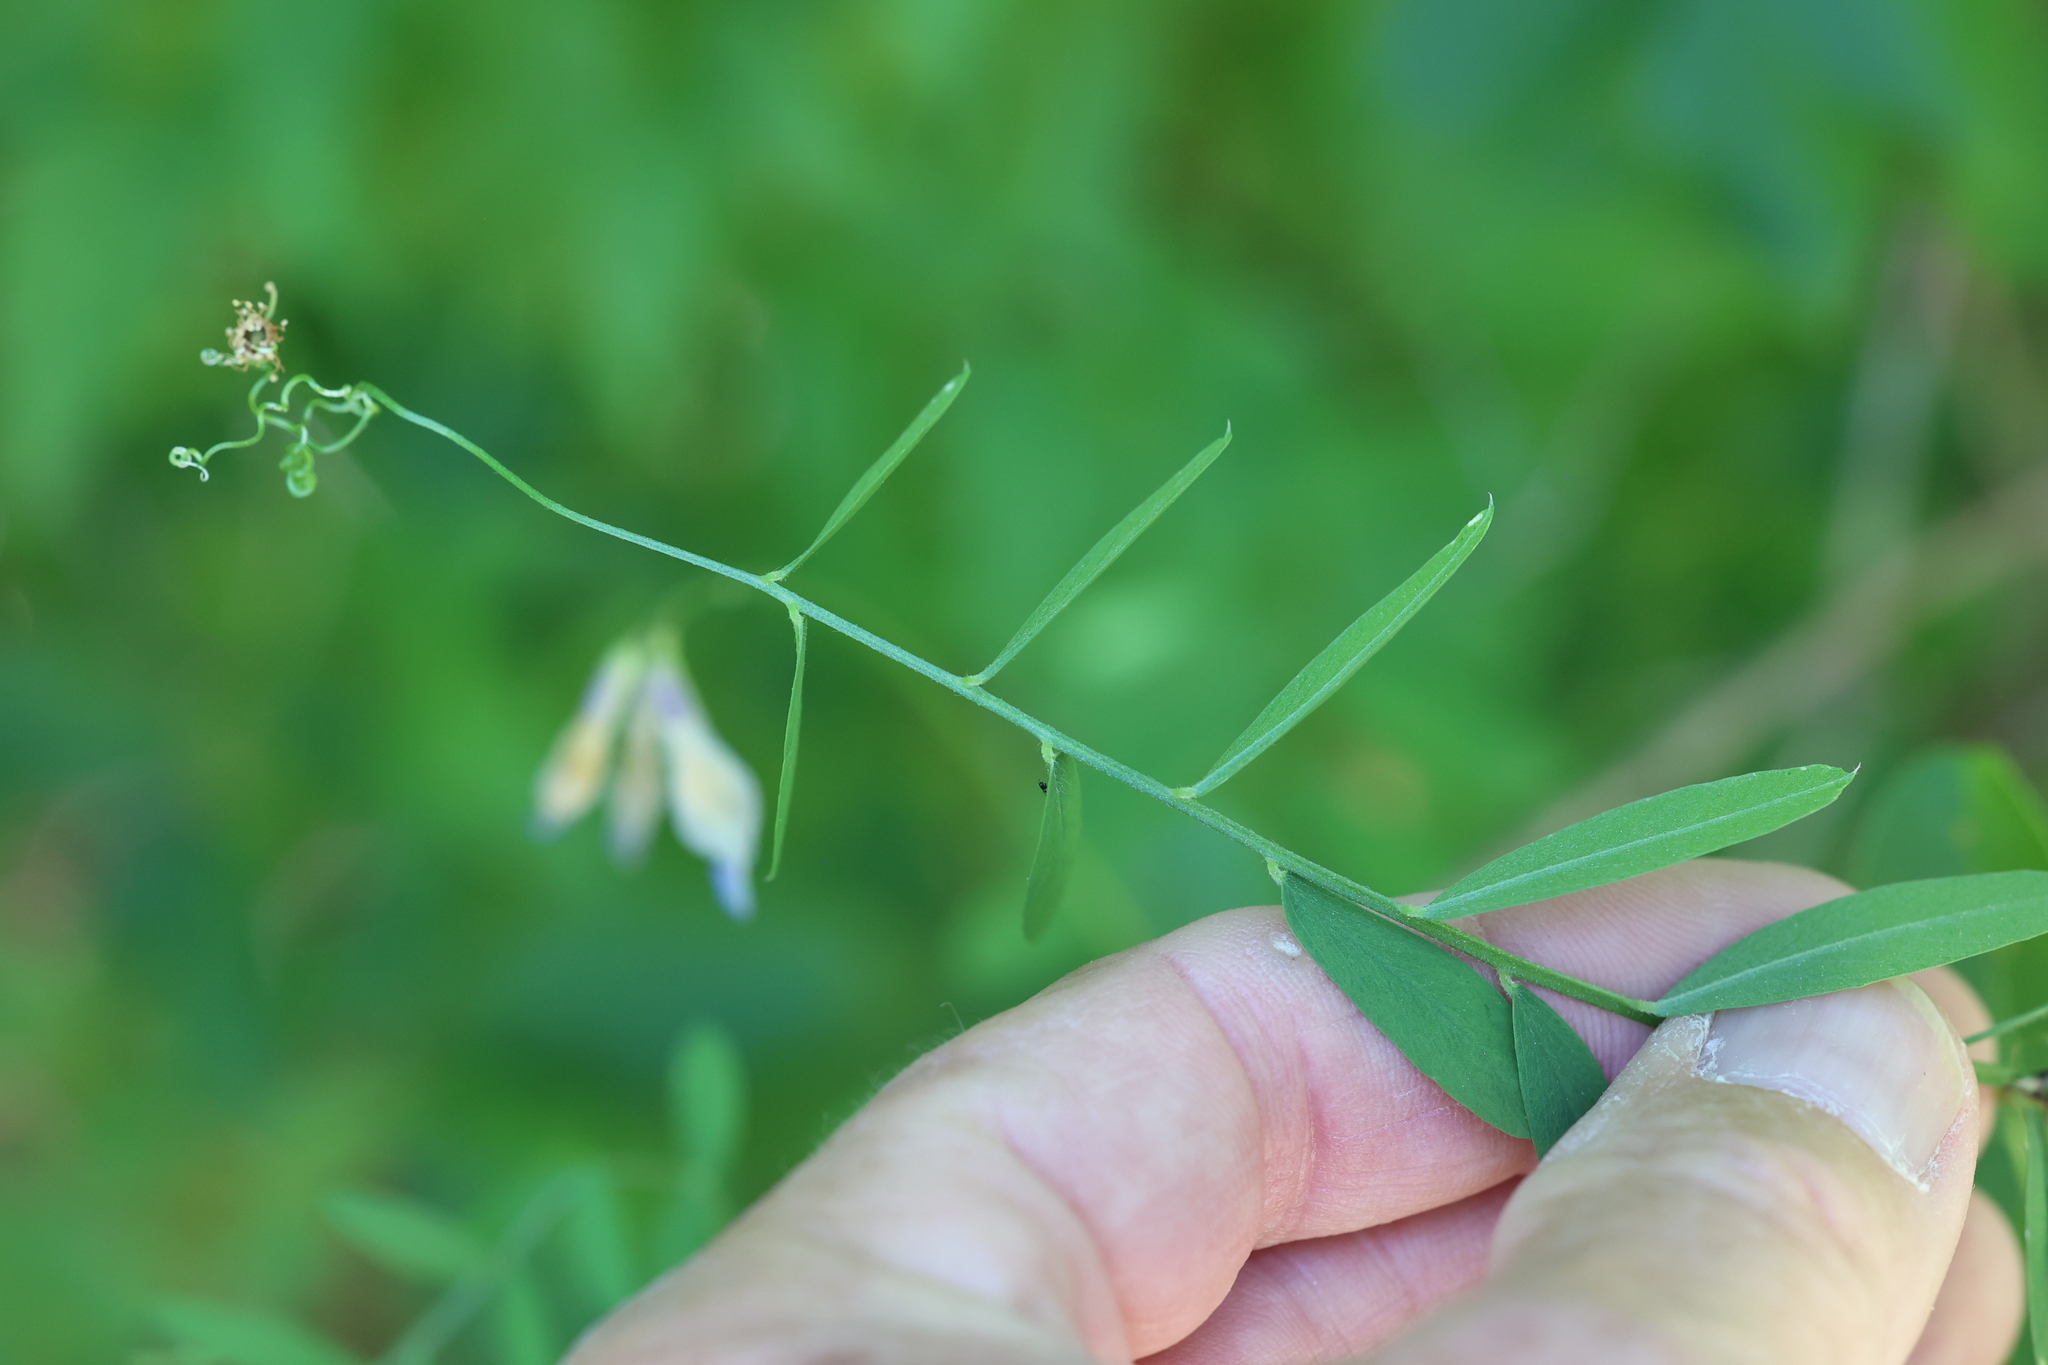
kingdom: Plantae
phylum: Tracheophyta
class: Magnoliopsida
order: Fabales
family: Fabaceae
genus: Vicia
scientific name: Vicia americana
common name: American vetch
